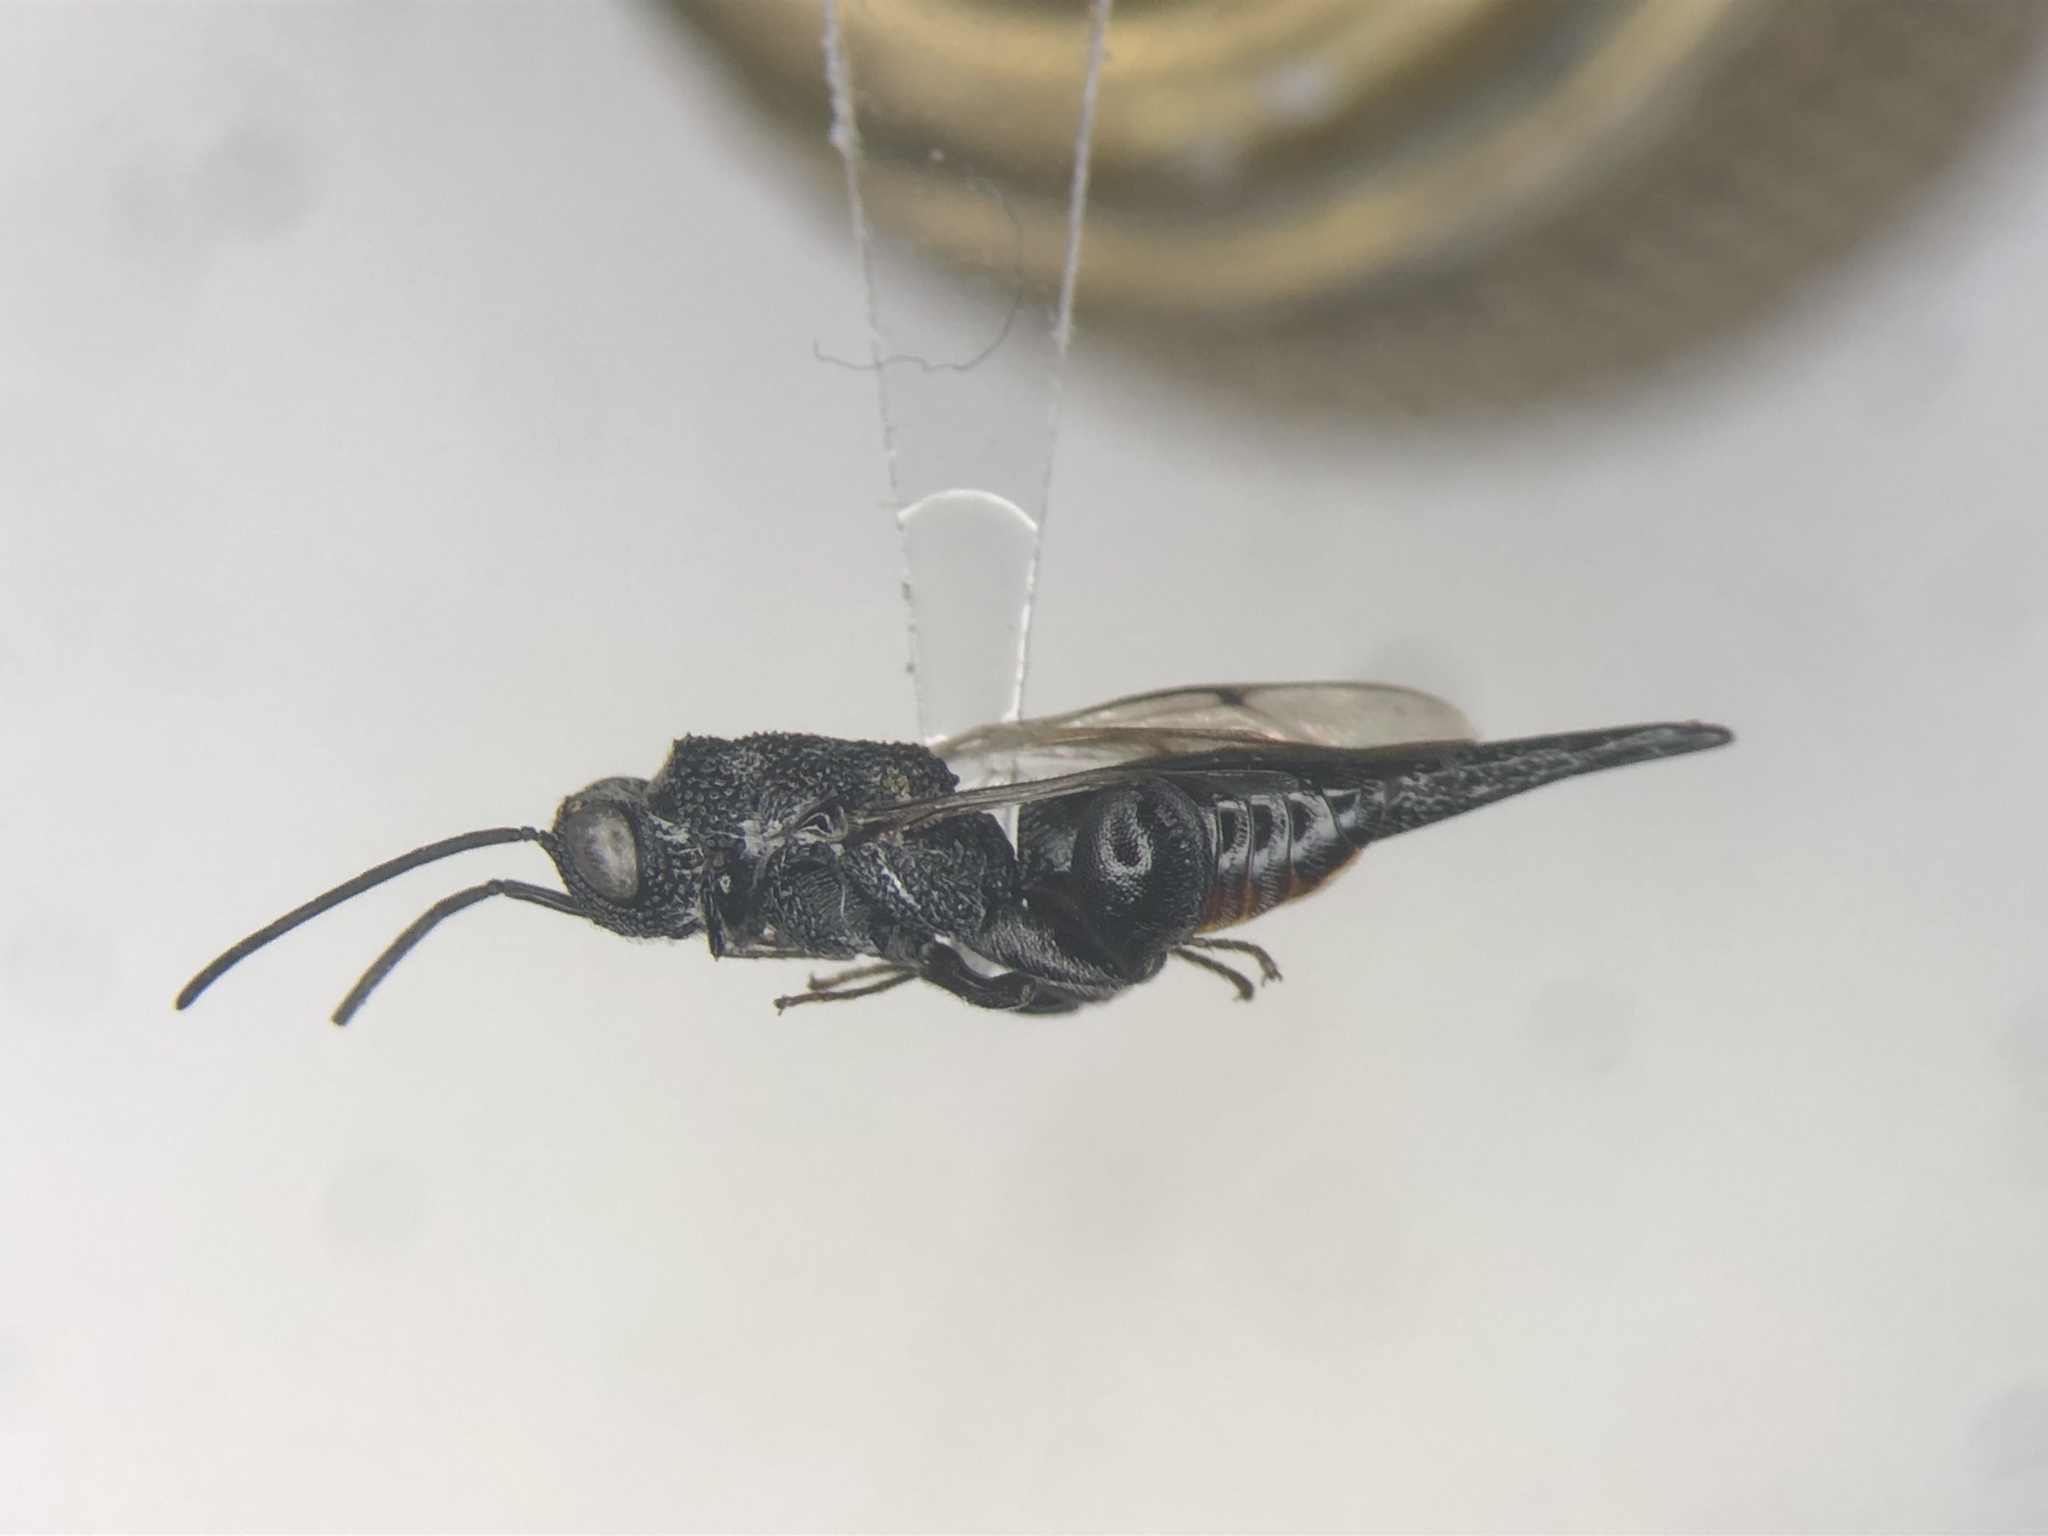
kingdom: Animalia
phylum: Arthropoda
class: Insecta
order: Hymenoptera
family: Chalcididae
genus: Phasgonophora
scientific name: Phasgonophora sulcata
